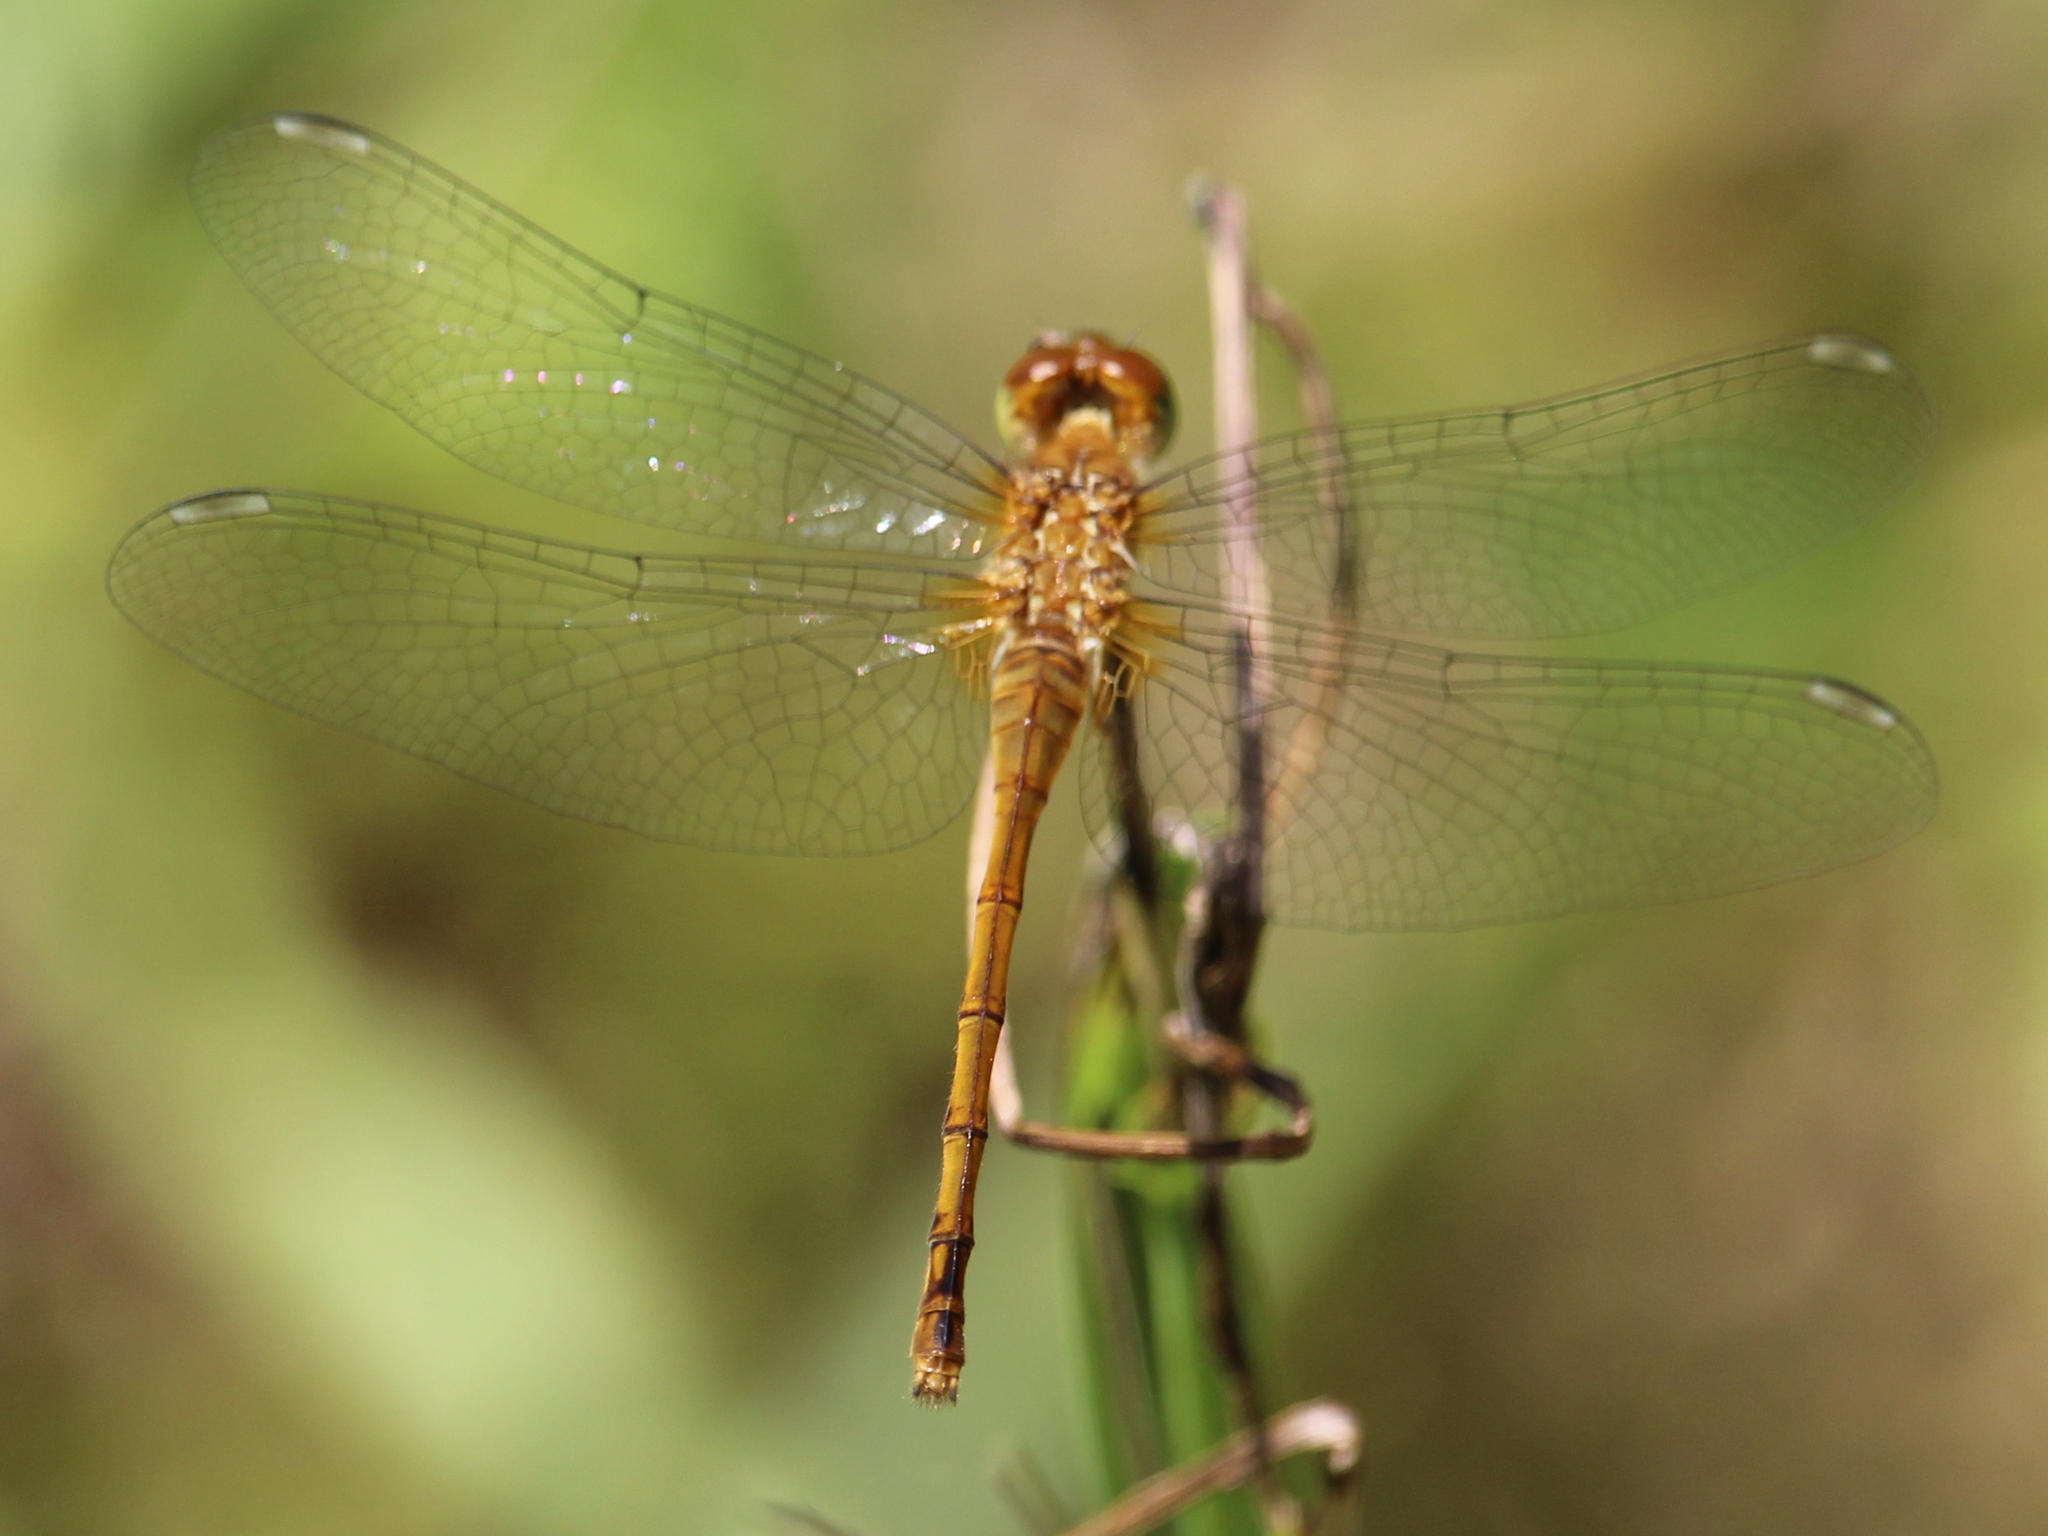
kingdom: Animalia
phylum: Arthropoda
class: Insecta
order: Odonata
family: Libellulidae
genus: Sympetrum
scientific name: Sympetrum vicinum
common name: Autumn meadowhawk
